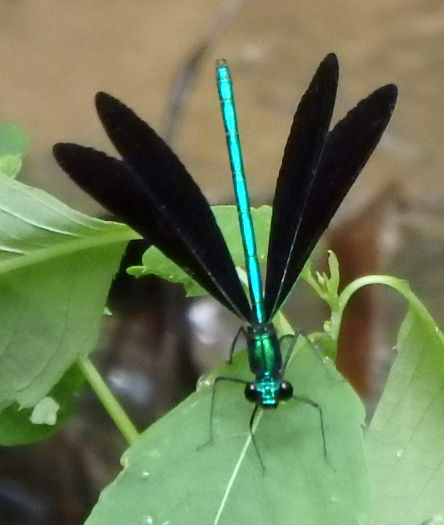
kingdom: Animalia
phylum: Arthropoda
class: Insecta
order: Odonata
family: Calopterygidae
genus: Calopteryx
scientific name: Calopteryx maculata
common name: Ebony jewelwing
